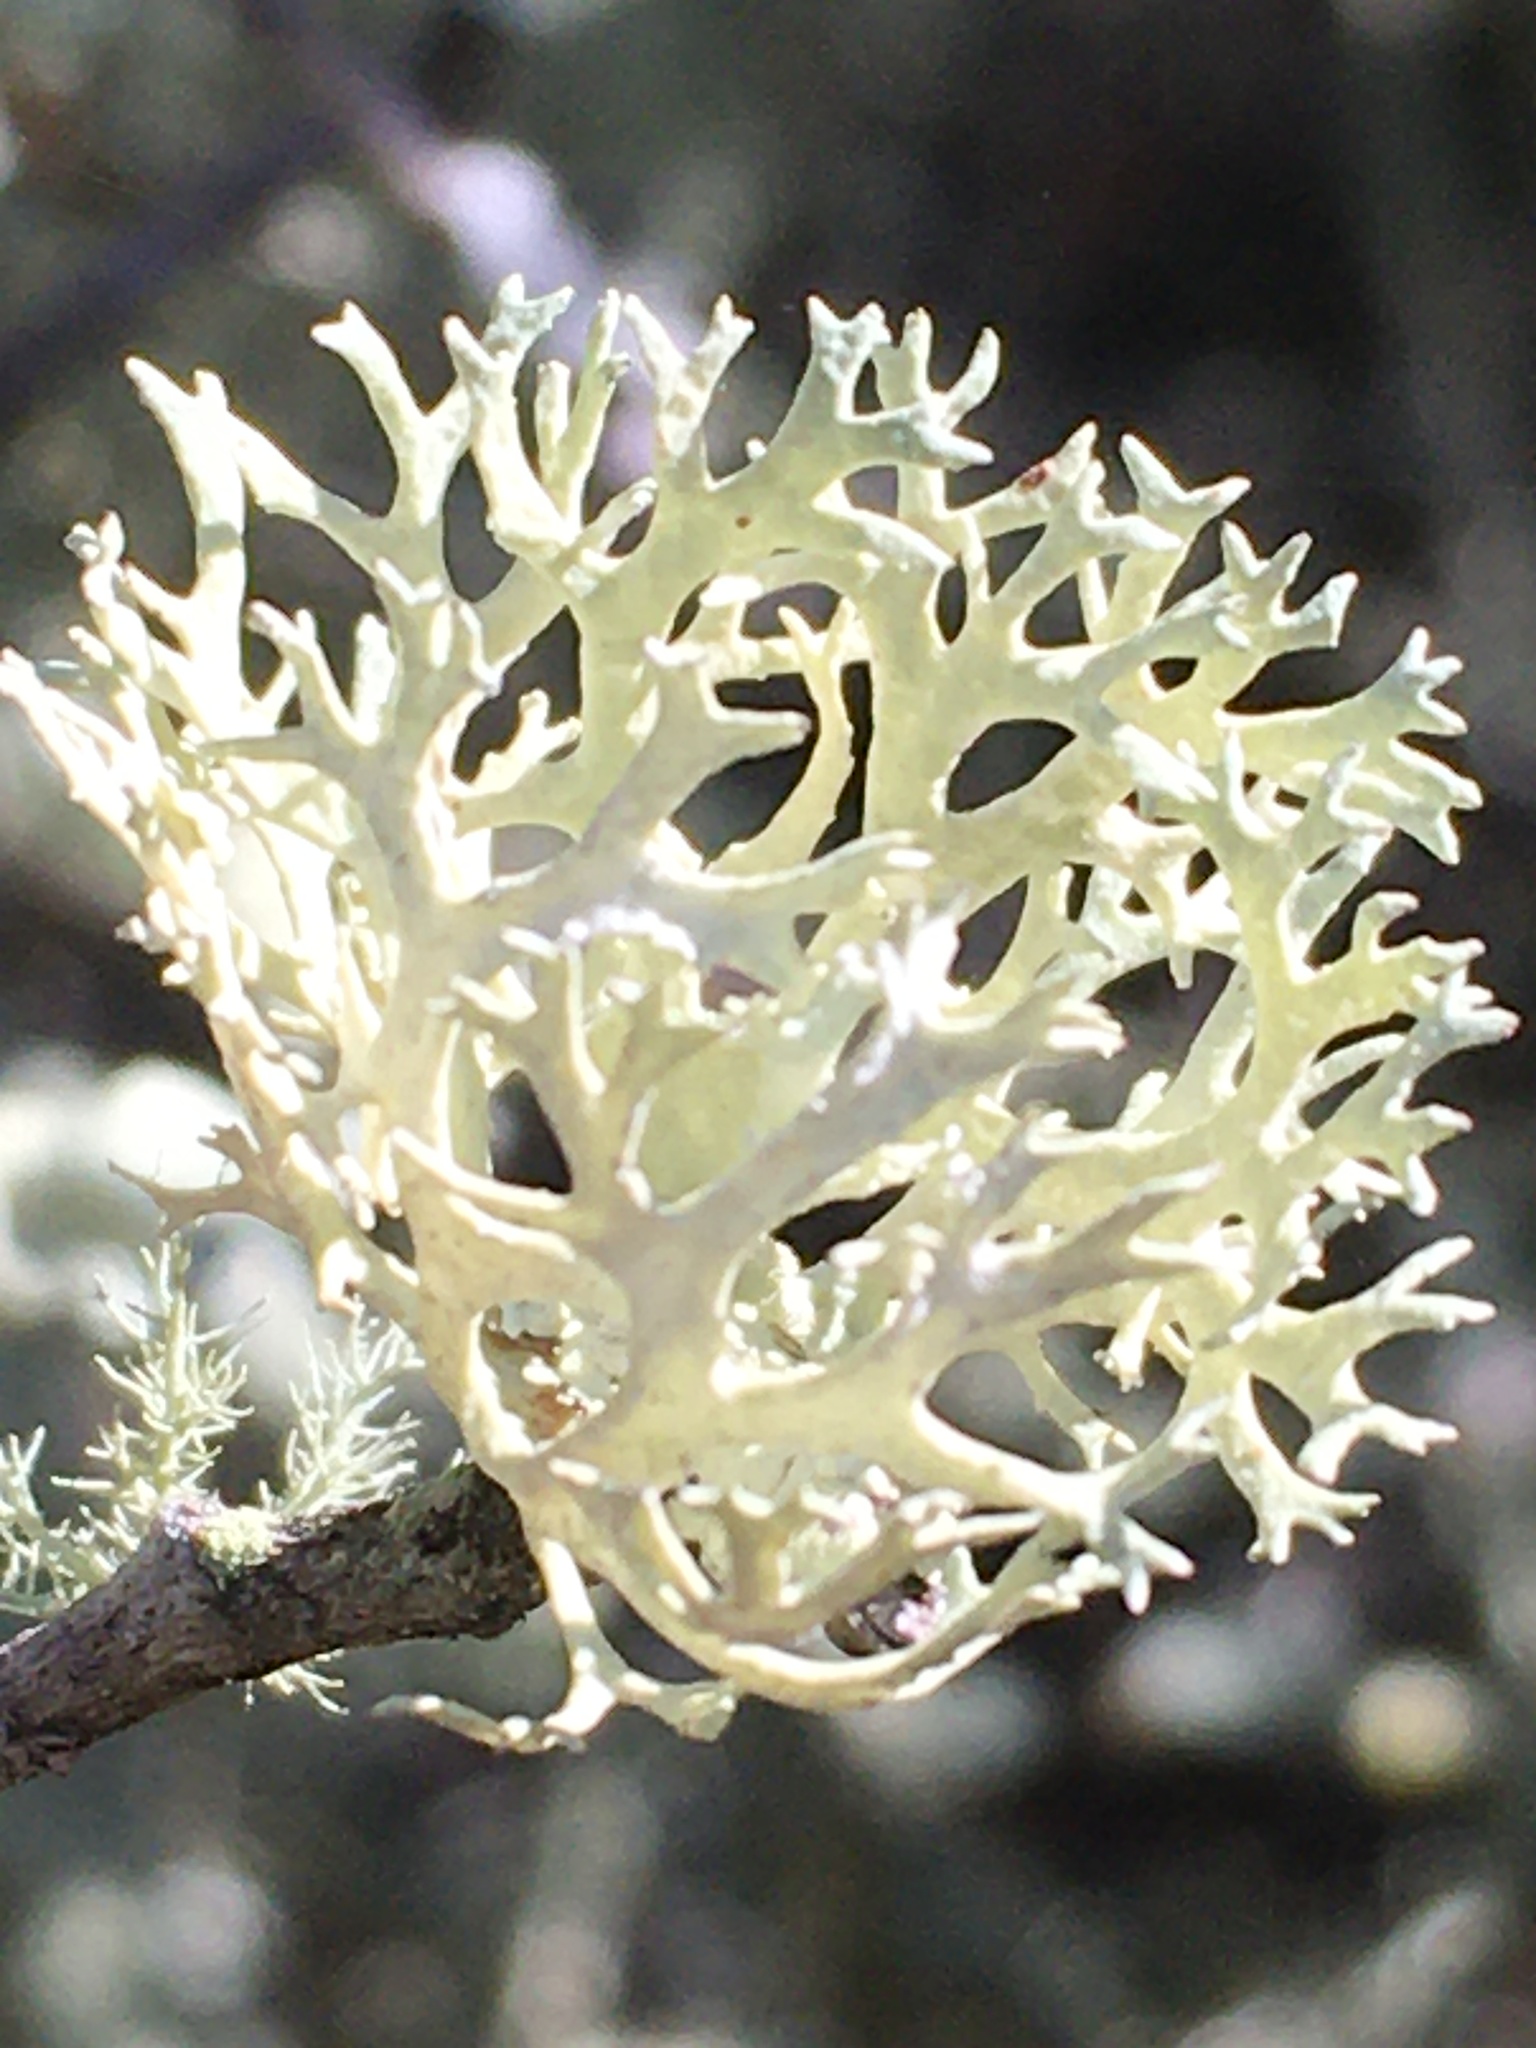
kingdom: Fungi
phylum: Ascomycota
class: Lecanoromycetes
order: Lecanorales
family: Parmeliaceae
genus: Evernia
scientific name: Evernia prunastri
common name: Oak moss
